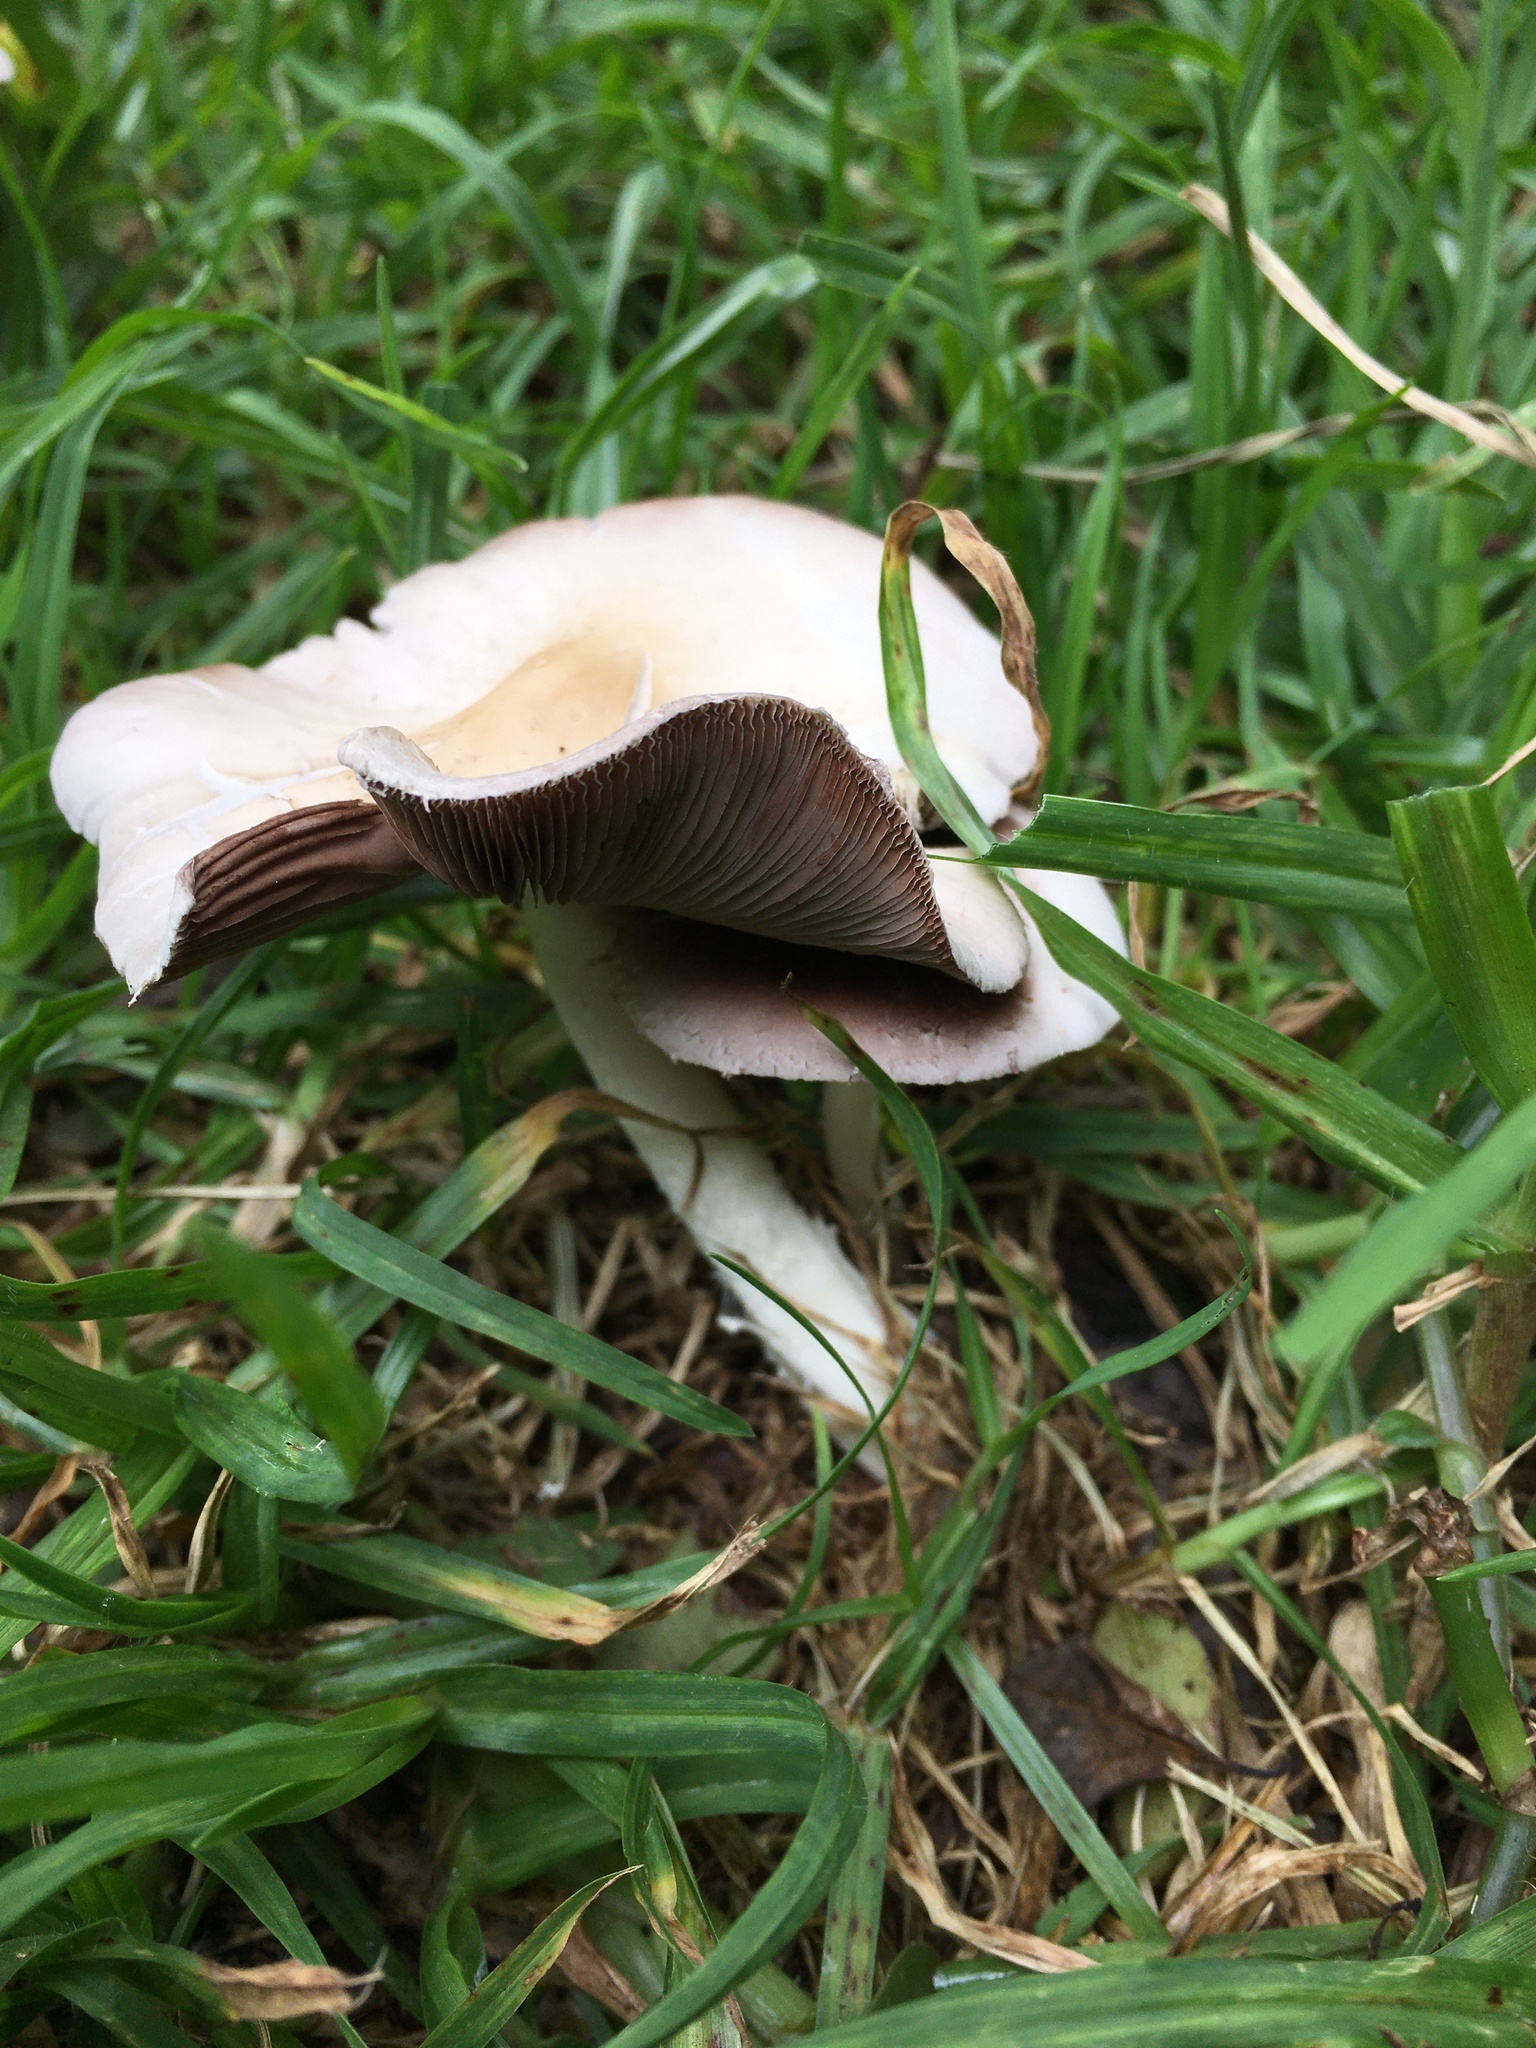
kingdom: Fungi
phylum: Basidiomycota
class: Agaricomycetes
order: Agaricales
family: Psathyrellaceae
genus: Candolleomyces
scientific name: Candolleomyces candolleanus
